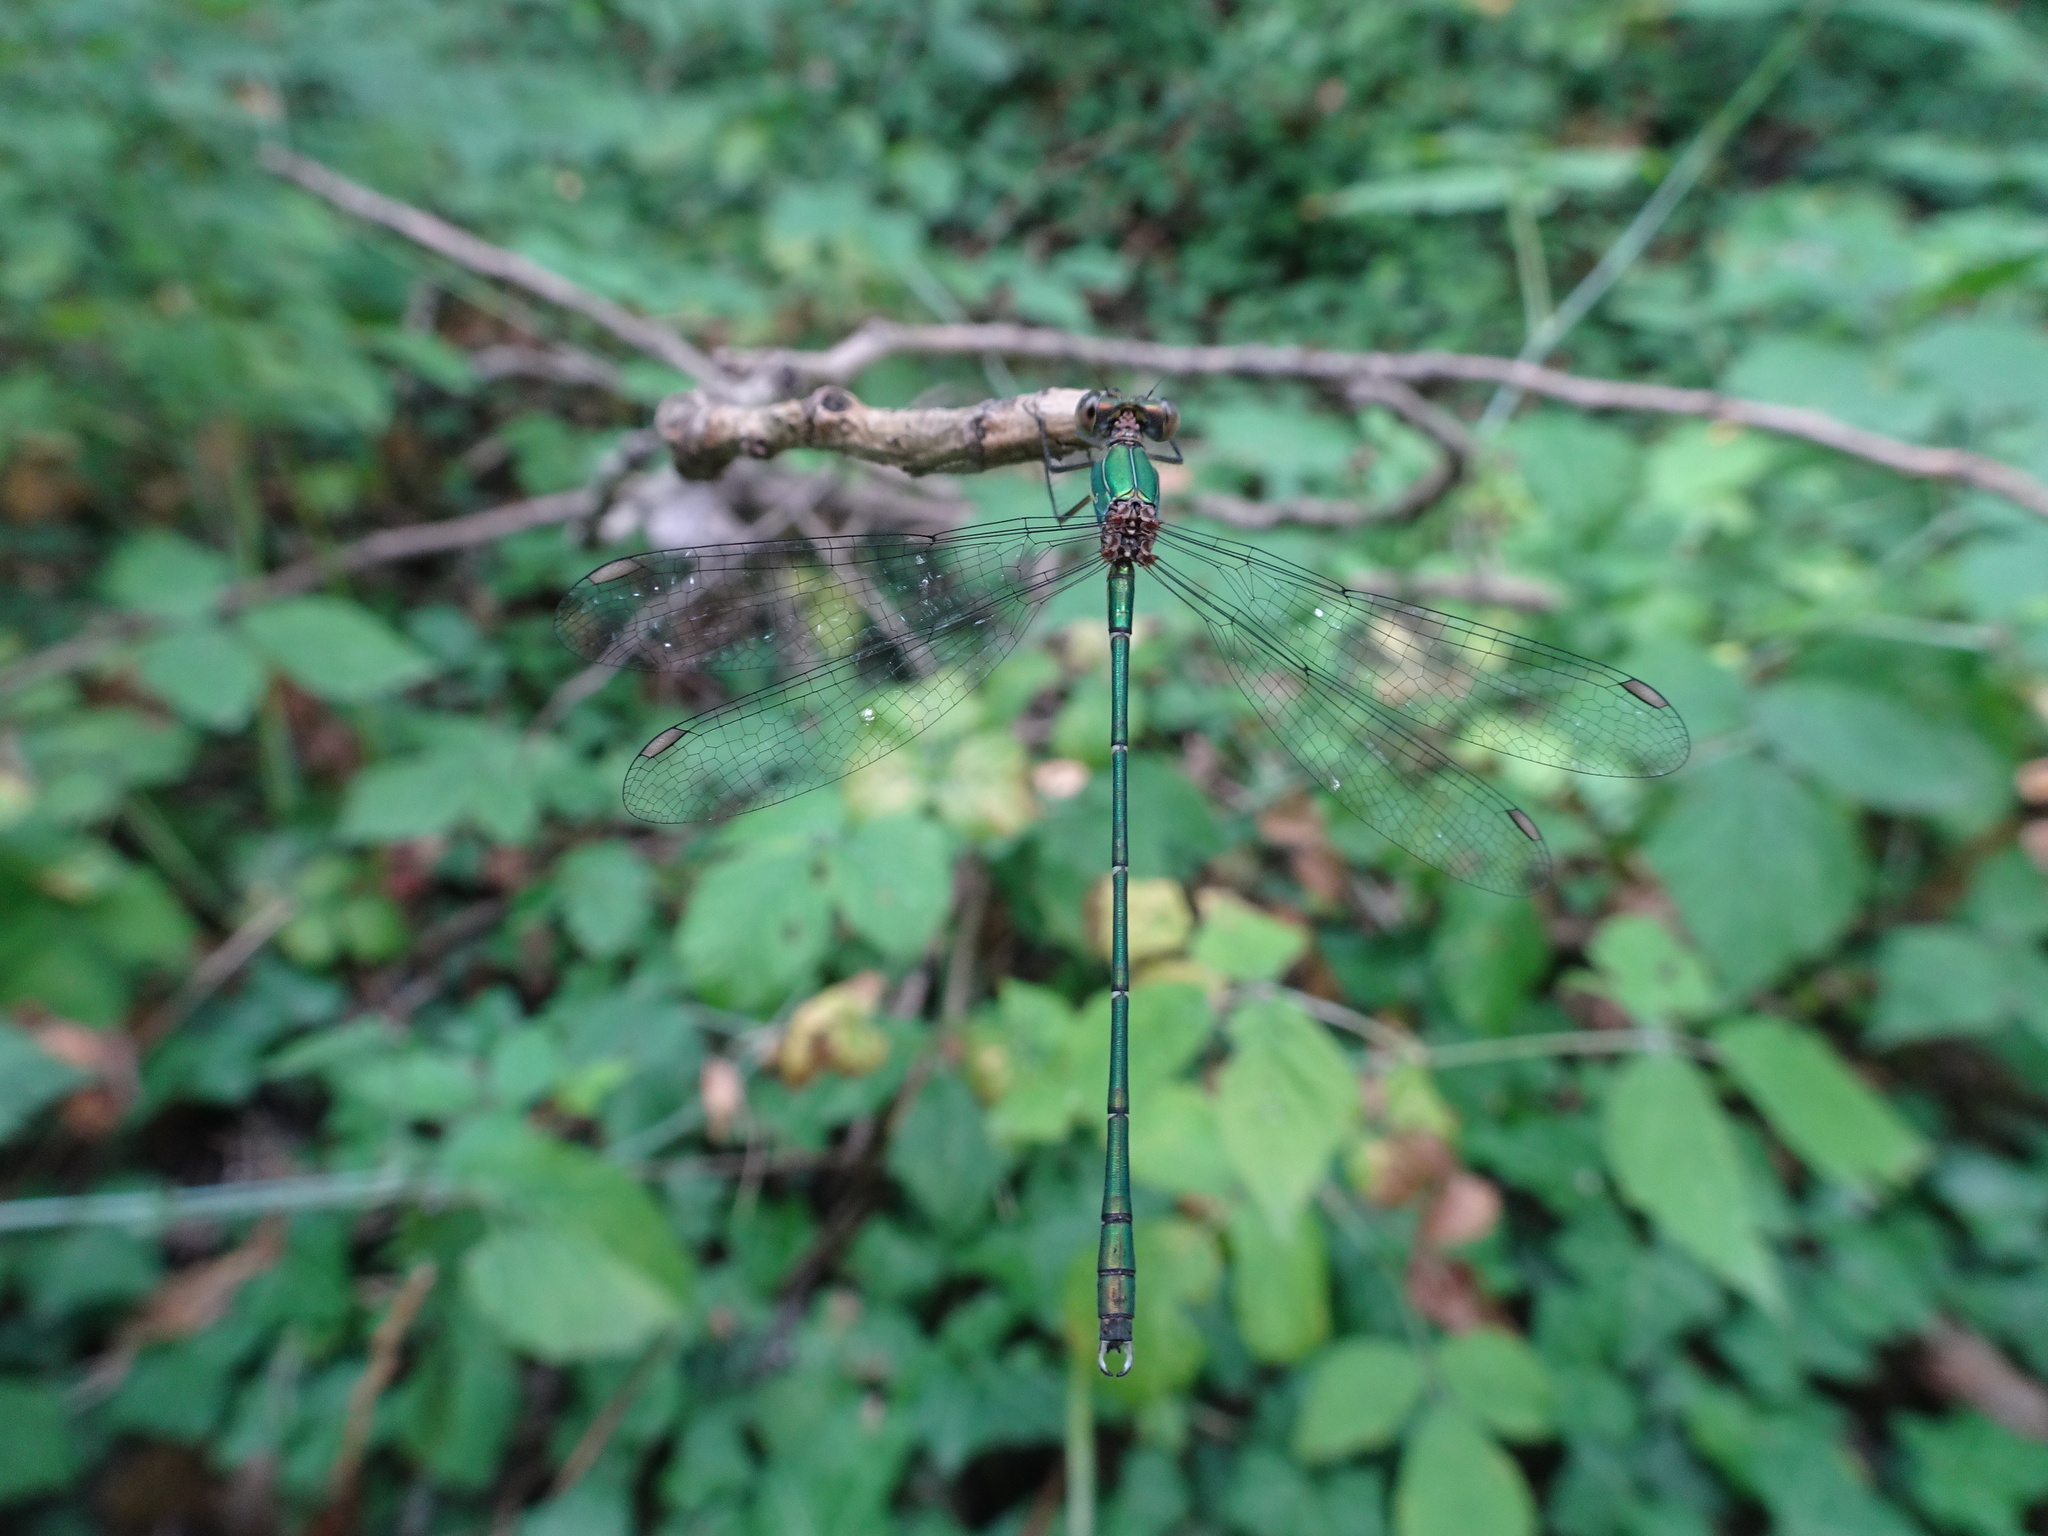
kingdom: Animalia
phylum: Arthropoda
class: Insecta
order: Odonata
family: Lestidae
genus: Chalcolestes
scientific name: Chalcolestes viridis
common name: Green emerald damselfly
